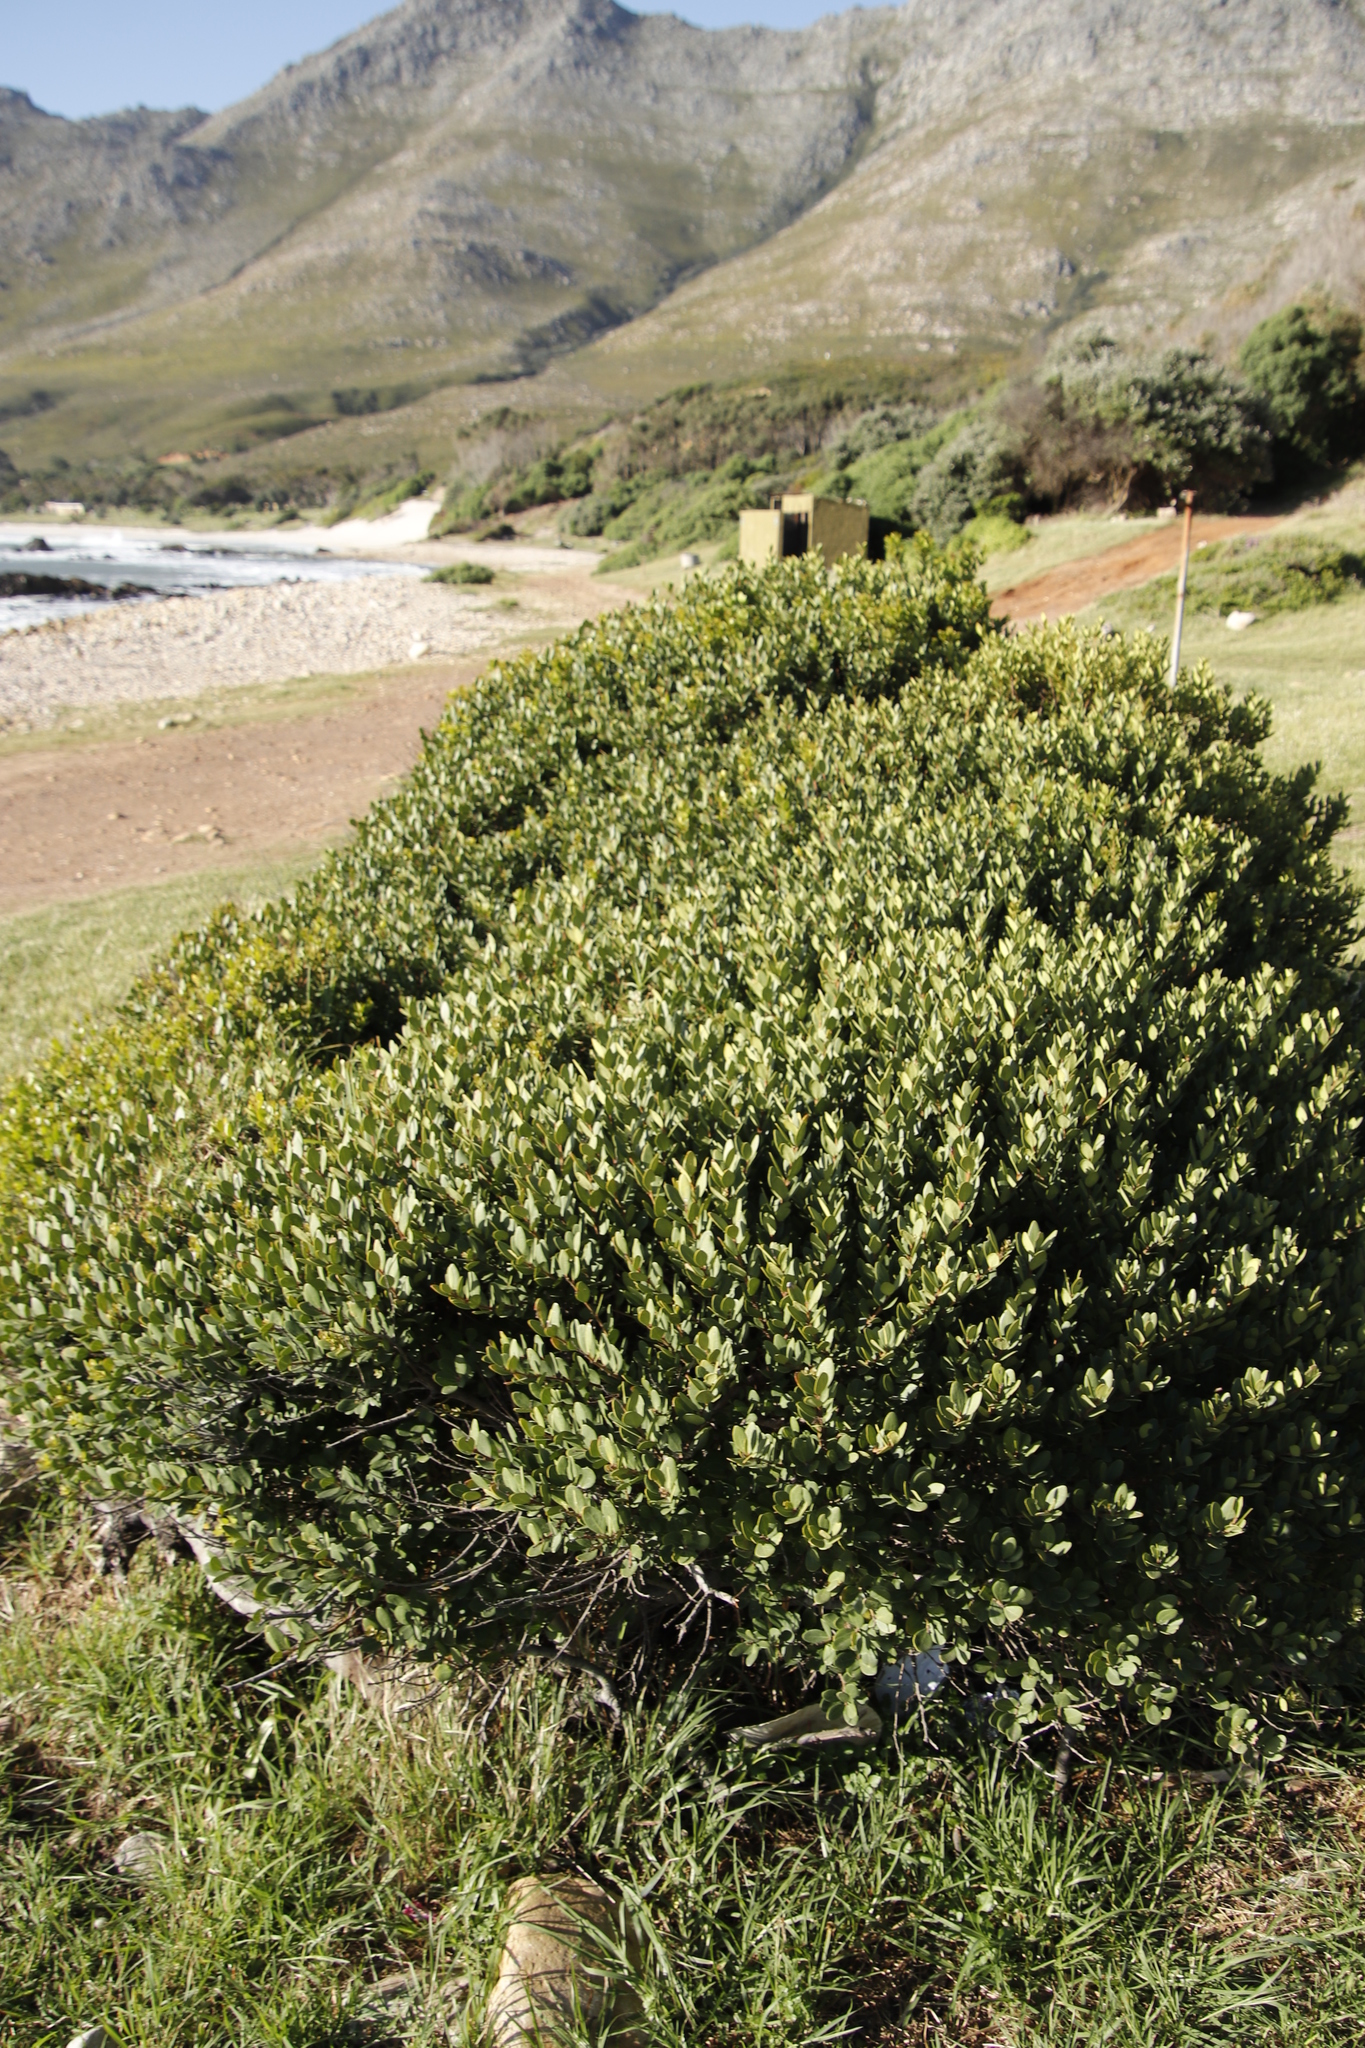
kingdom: Plantae
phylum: Tracheophyta
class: Magnoliopsida
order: Ericales
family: Ebenaceae
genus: Euclea
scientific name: Euclea racemosa
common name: Dune guarri
